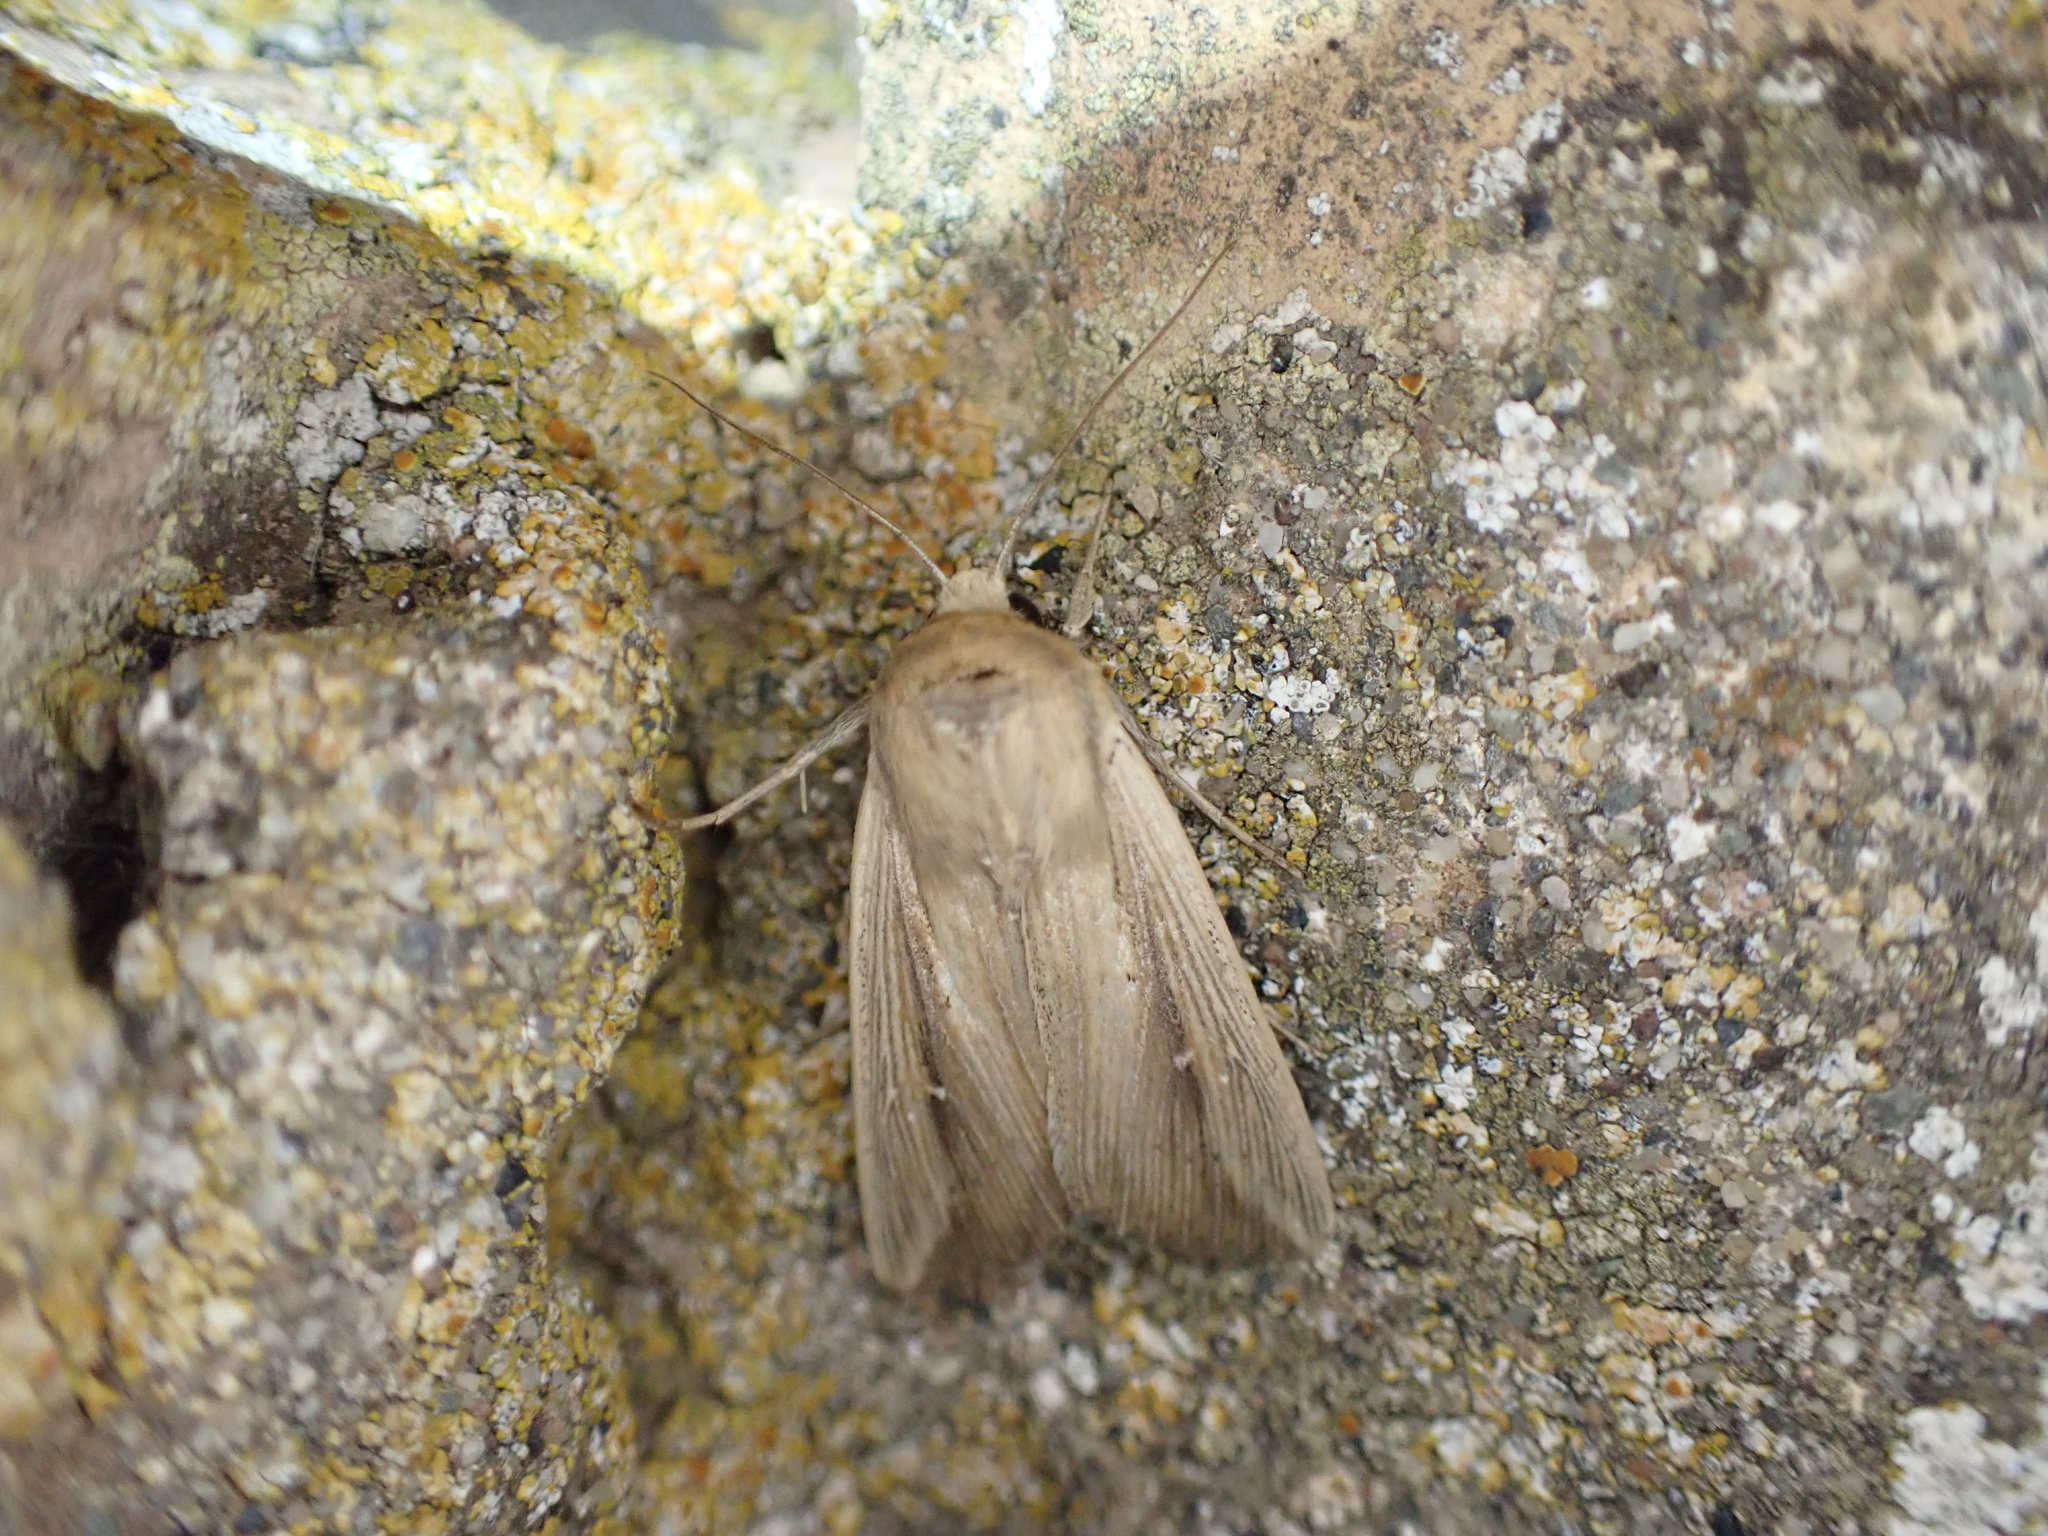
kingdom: Animalia
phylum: Arthropoda
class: Insecta
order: Lepidoptera
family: Noctuidae
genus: Leucania
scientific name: Leucania loreyi
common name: The cosmopolitan
